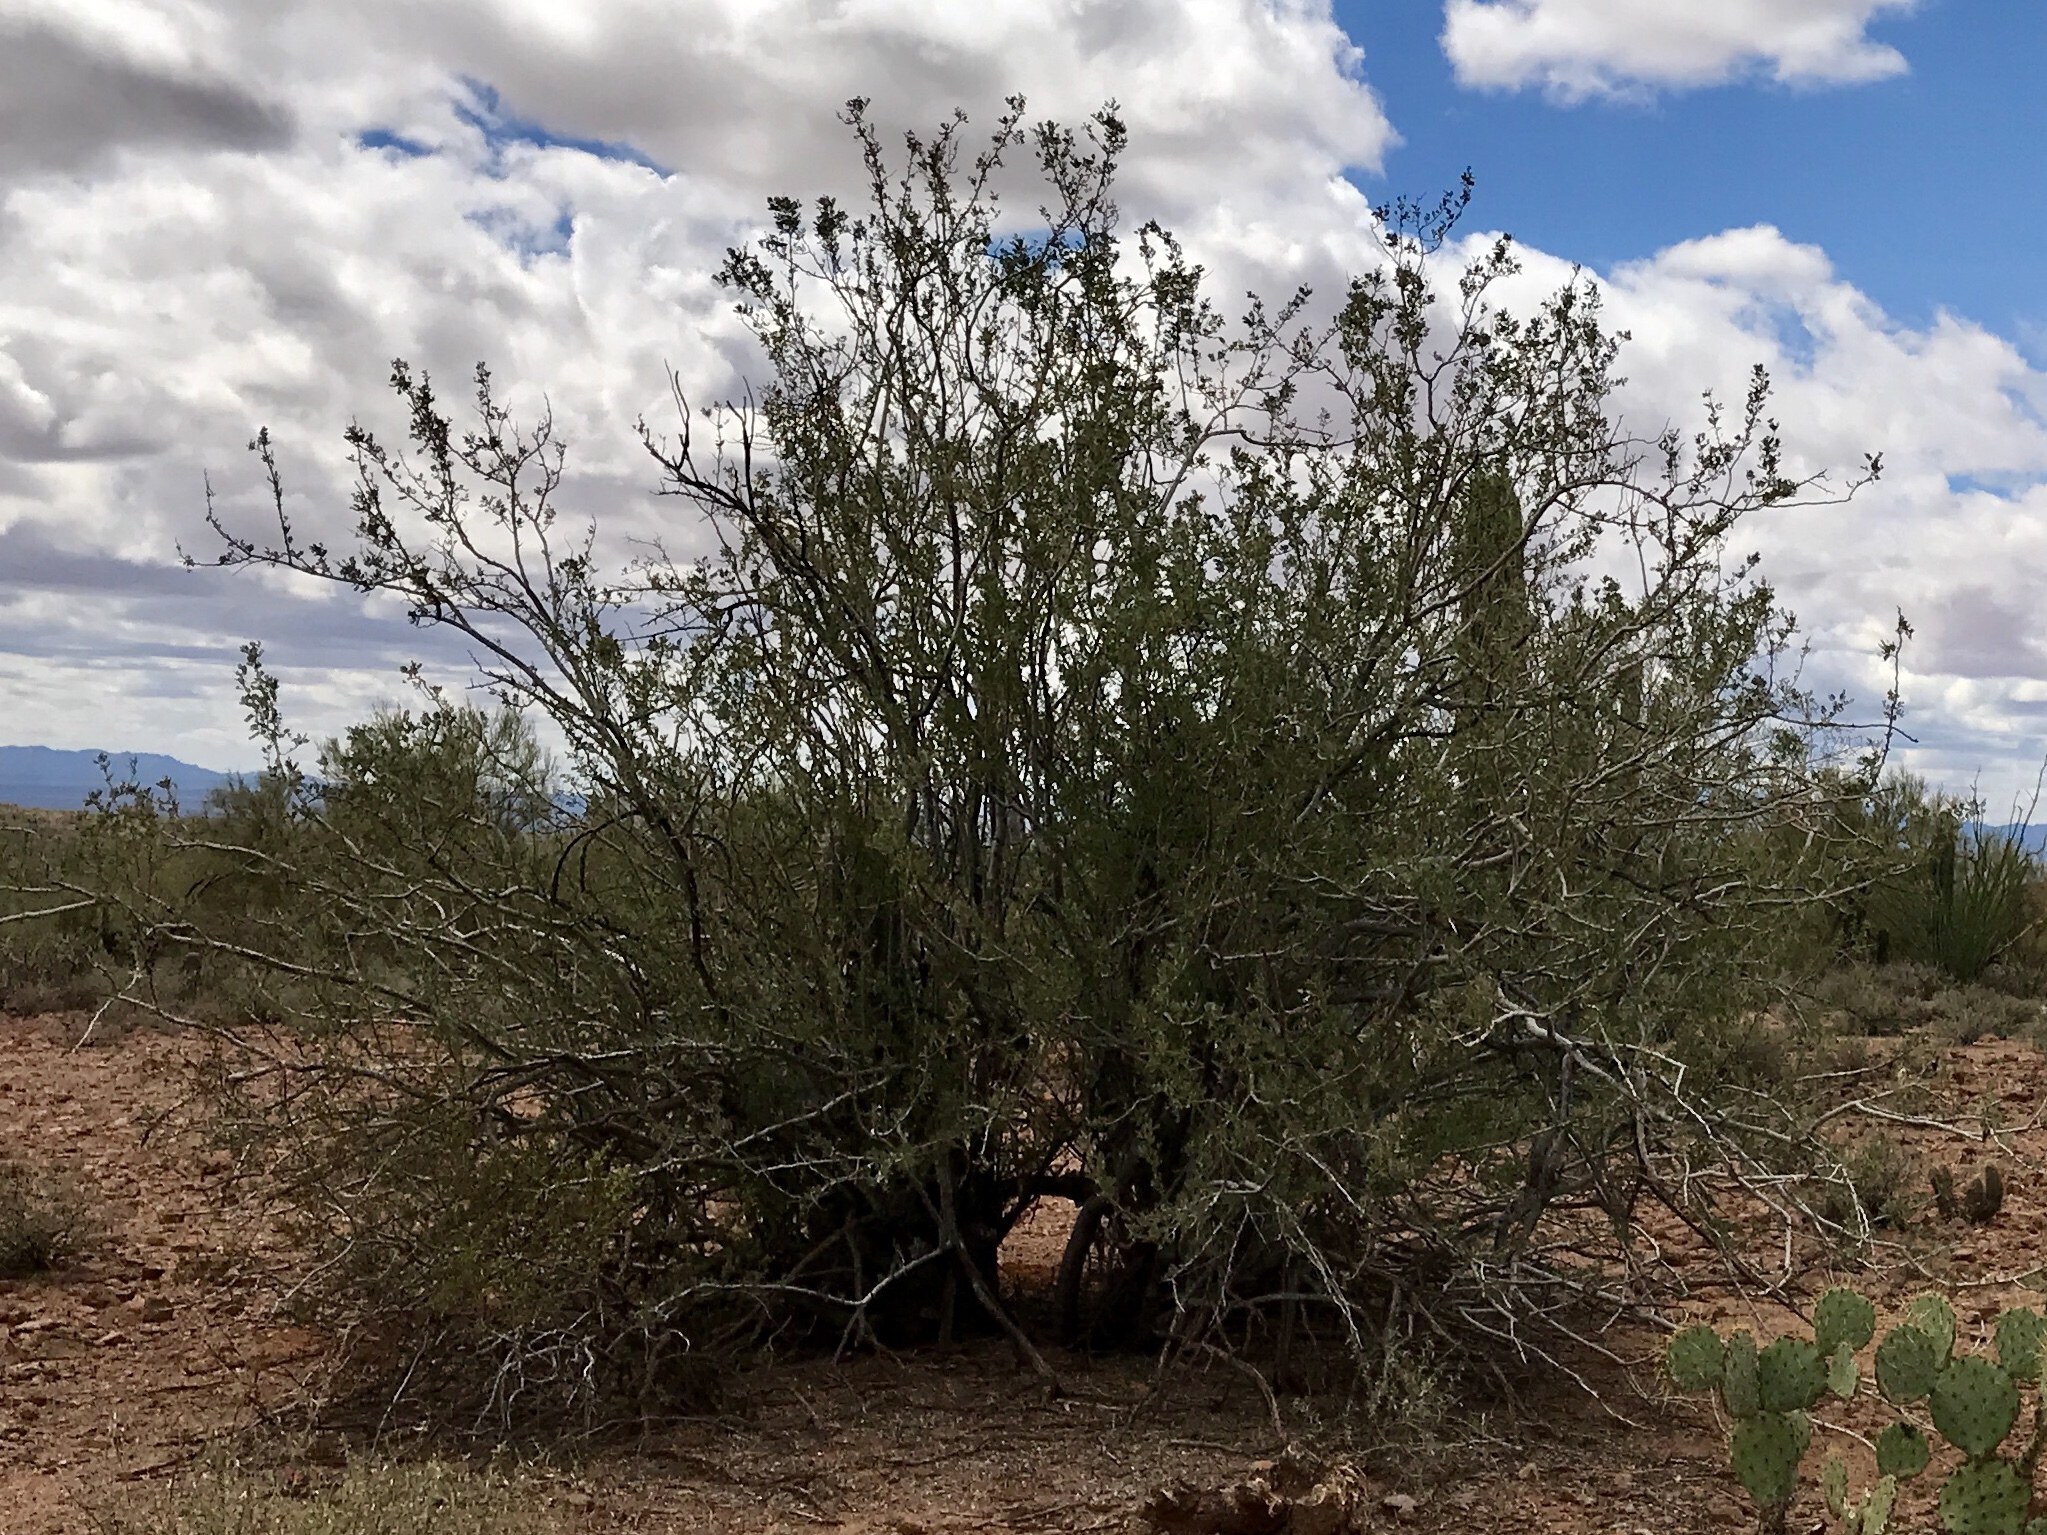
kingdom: Plantae
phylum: Tracheophyta
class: Magnoliopsida
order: Zygophyllales
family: Zygophyllaceae
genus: Larrea
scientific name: Larrea tridentata
